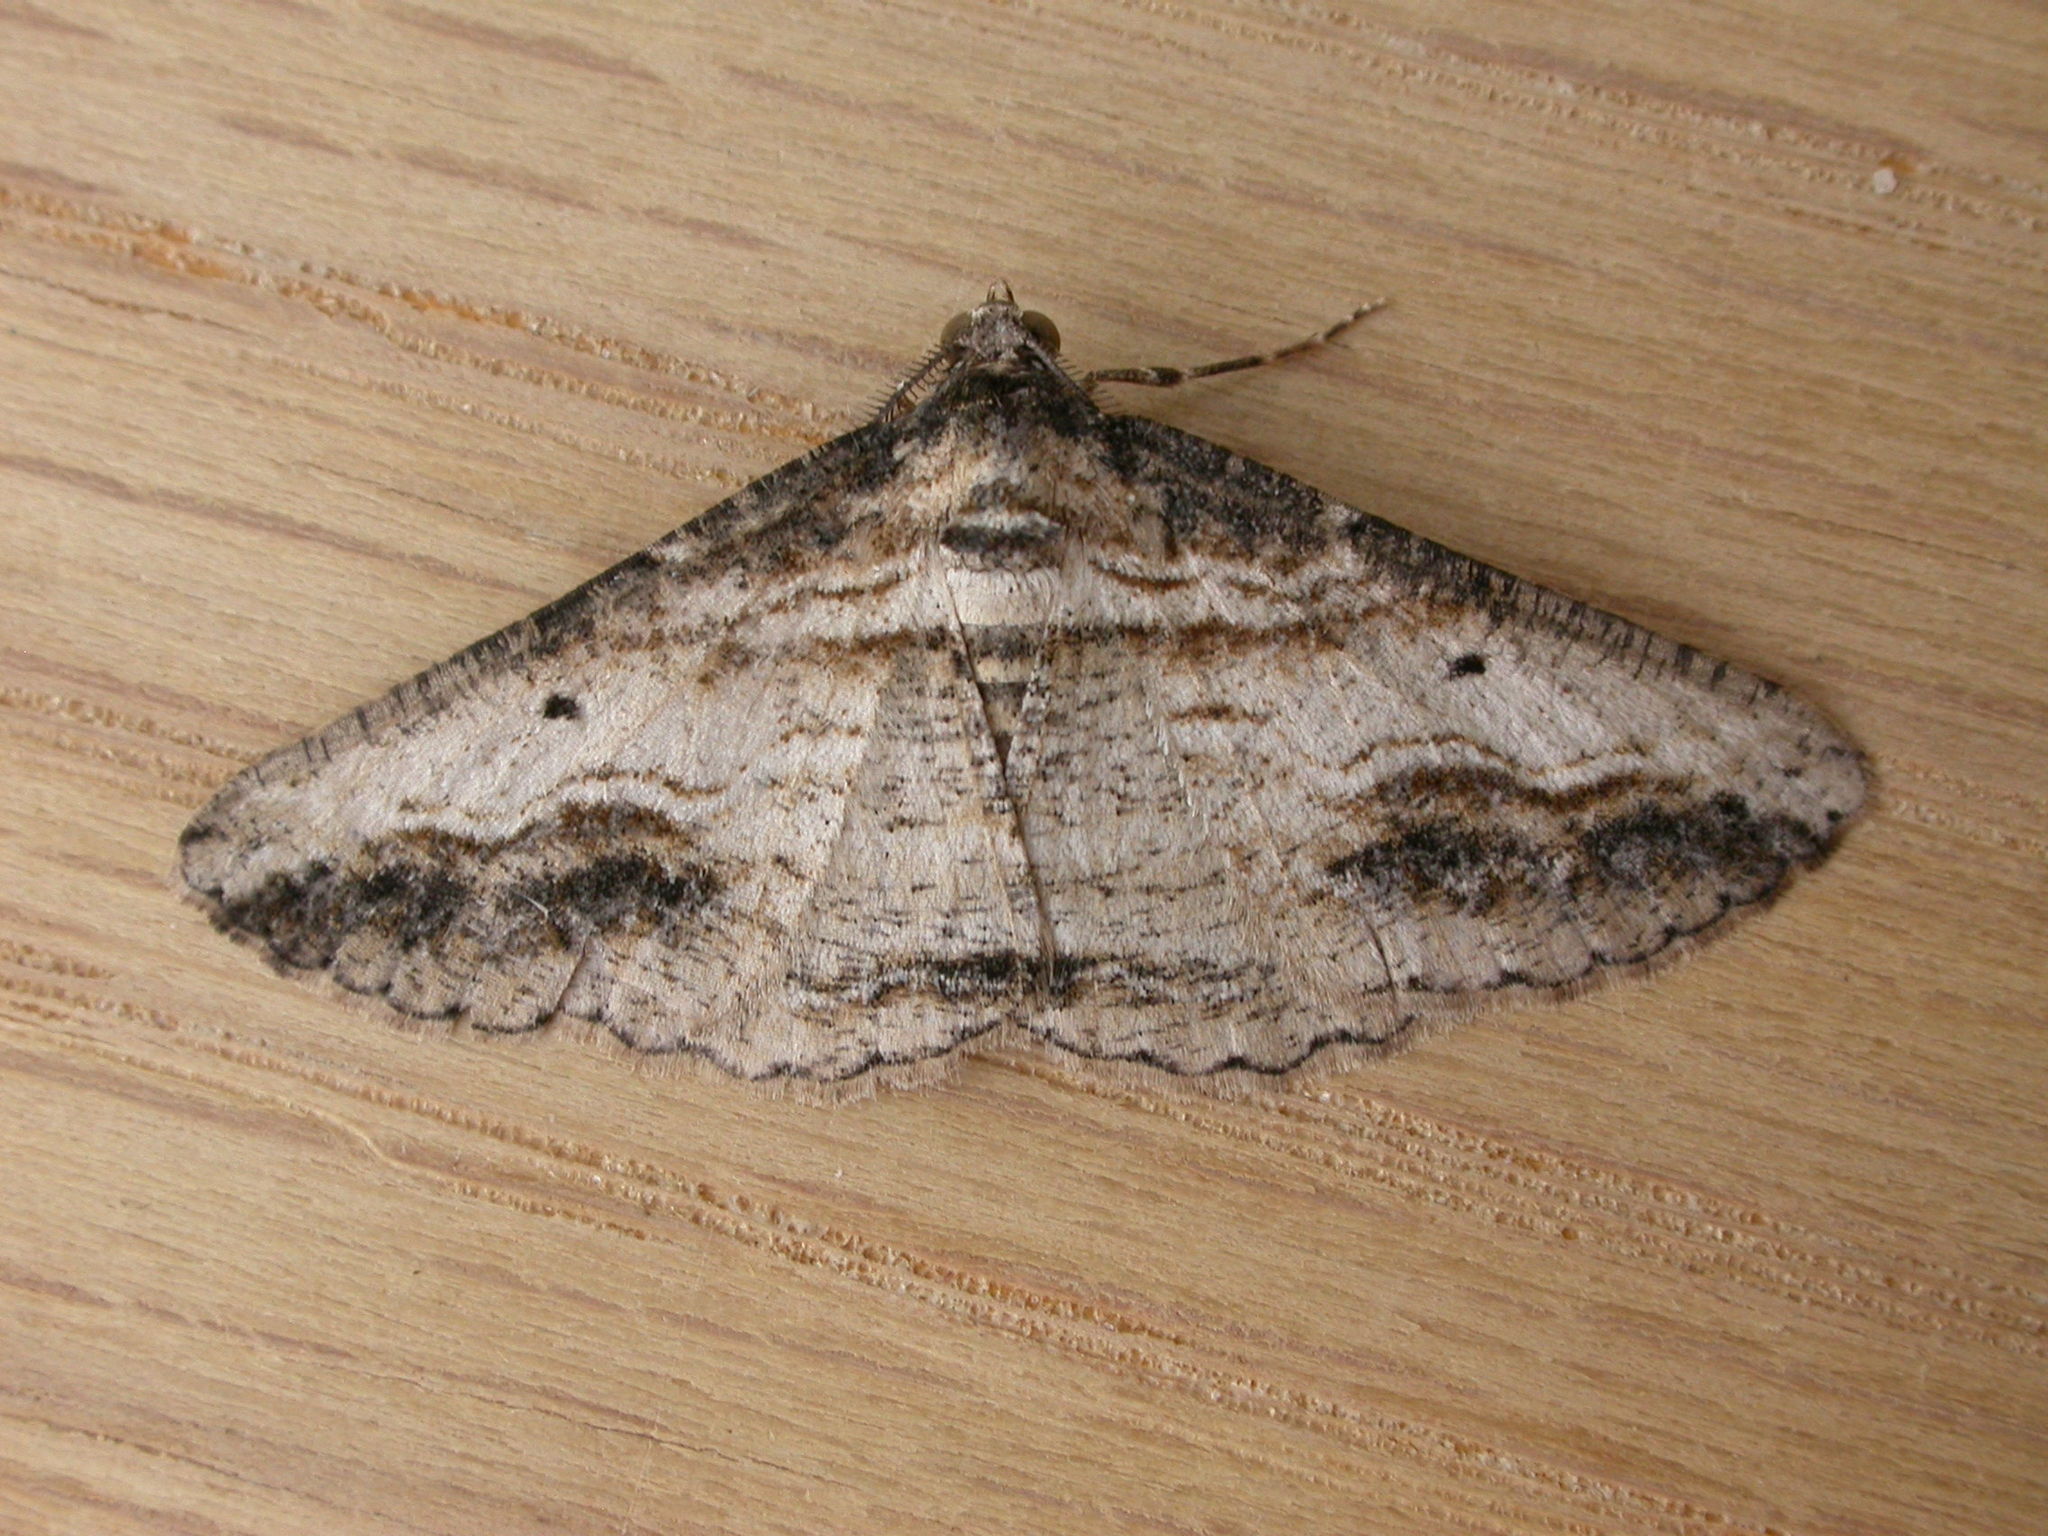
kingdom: Animalia
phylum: Arthropoda
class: Insecta
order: Lepidoptera
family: Geometridae
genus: Syneora
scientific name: Syneora euboliaria
